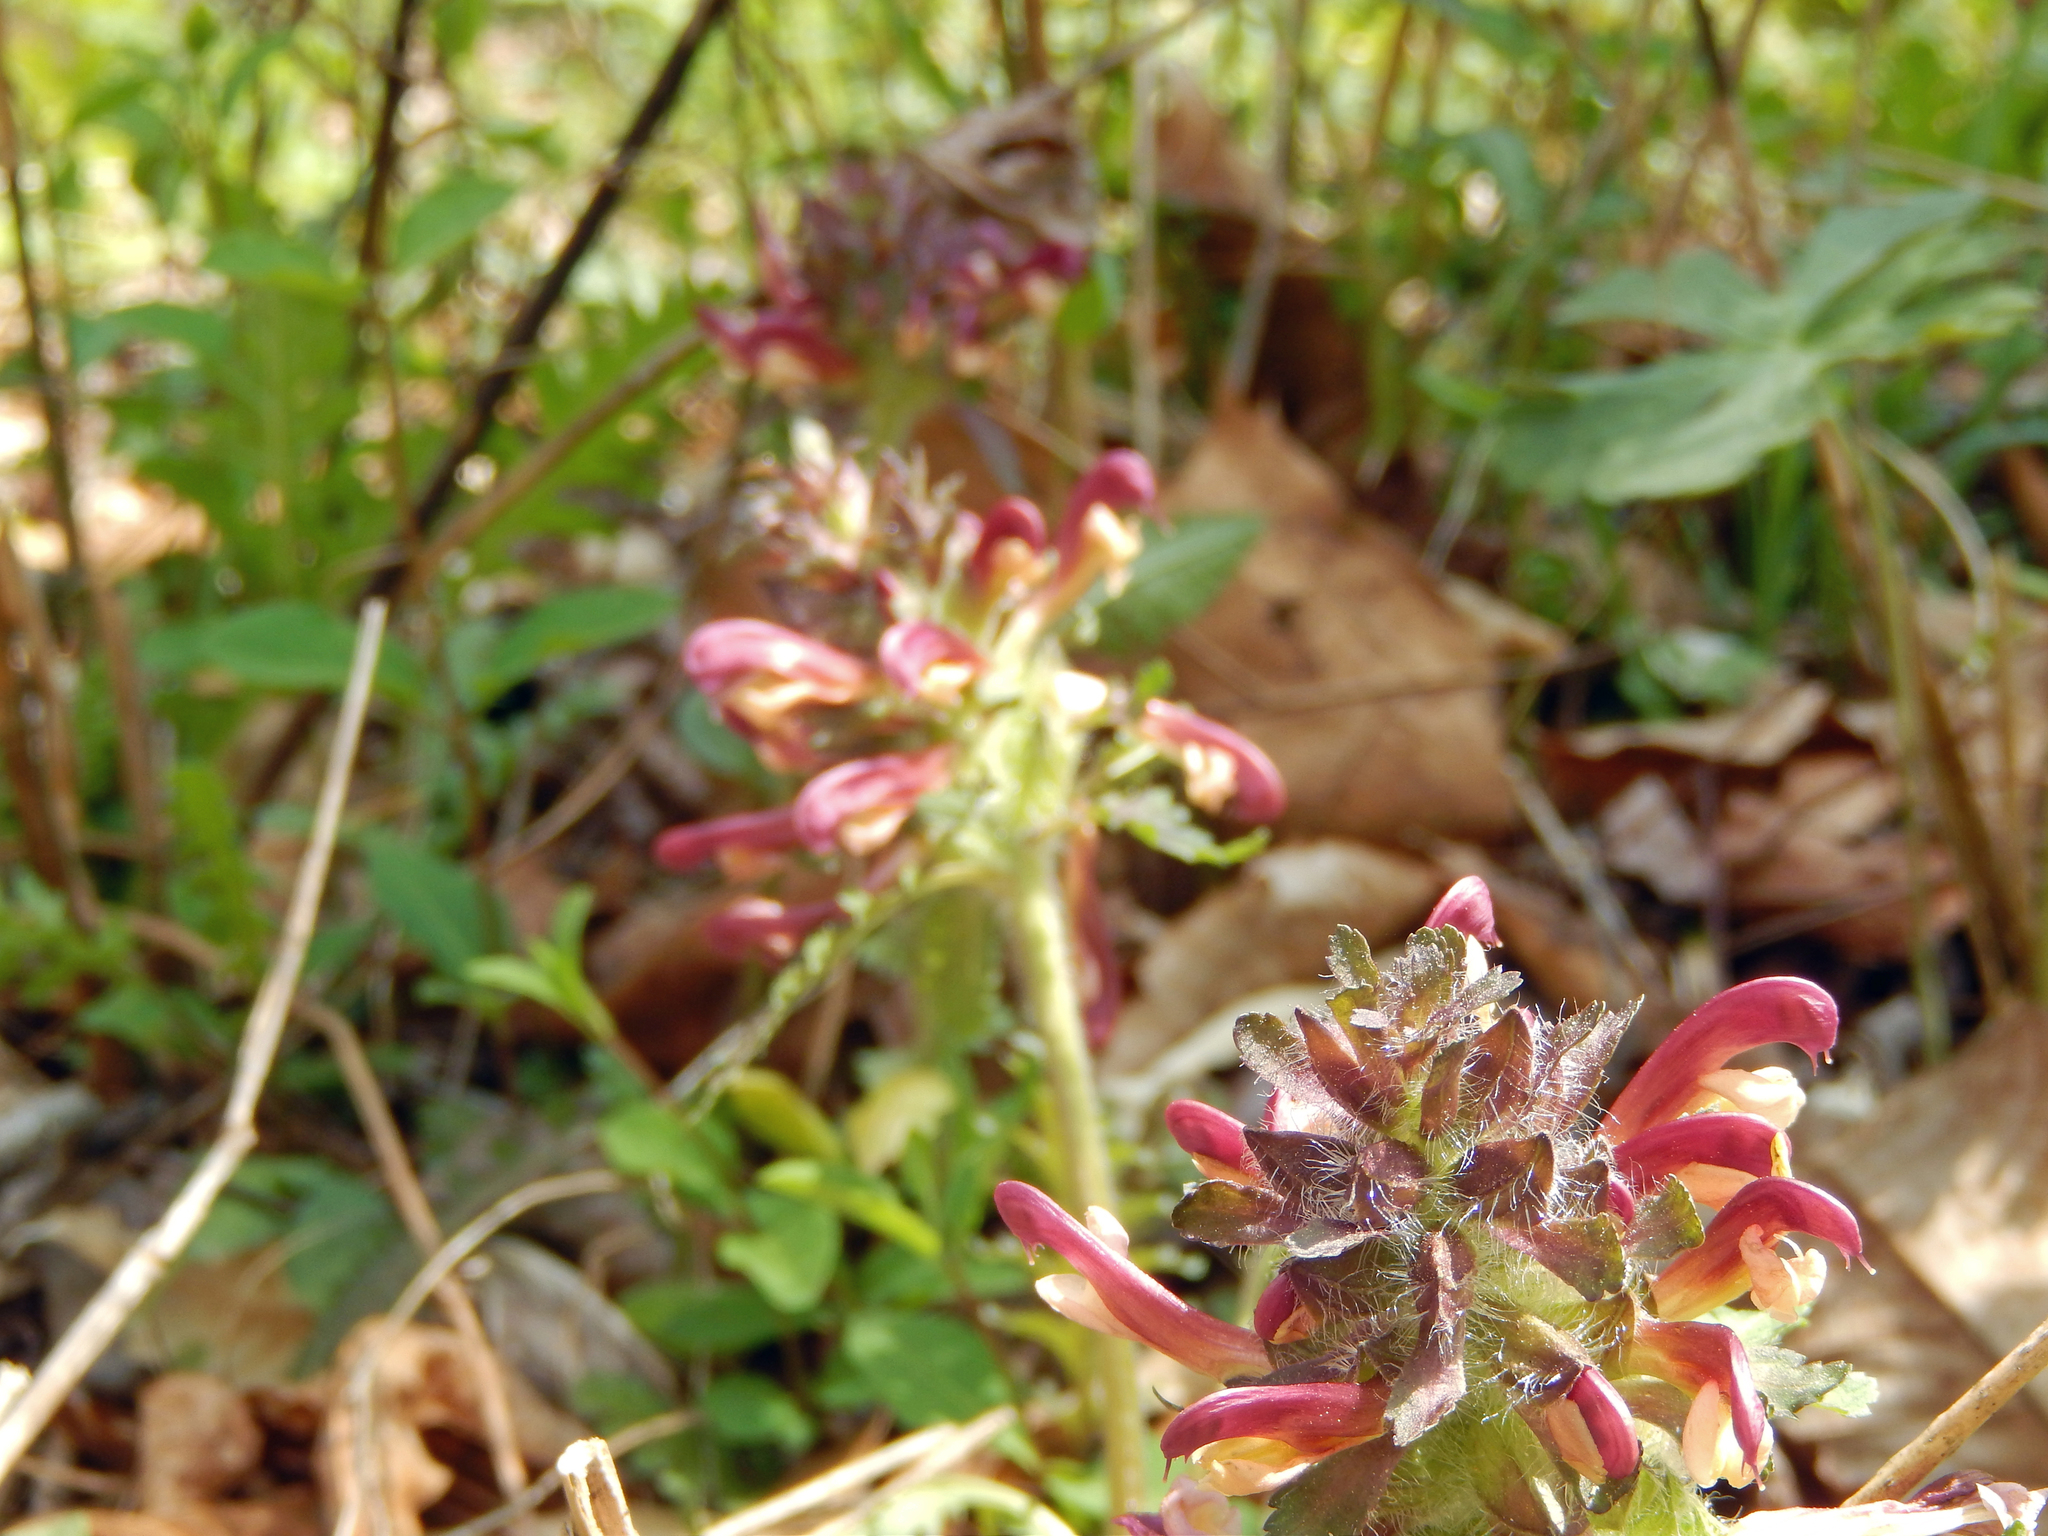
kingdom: Plantae
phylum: Tracheophyta
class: Magnoliopsida
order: Lamiales
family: Orobanchaceae
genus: Pedicularis
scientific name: Pedicularis canadensis
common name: Early lousewort
